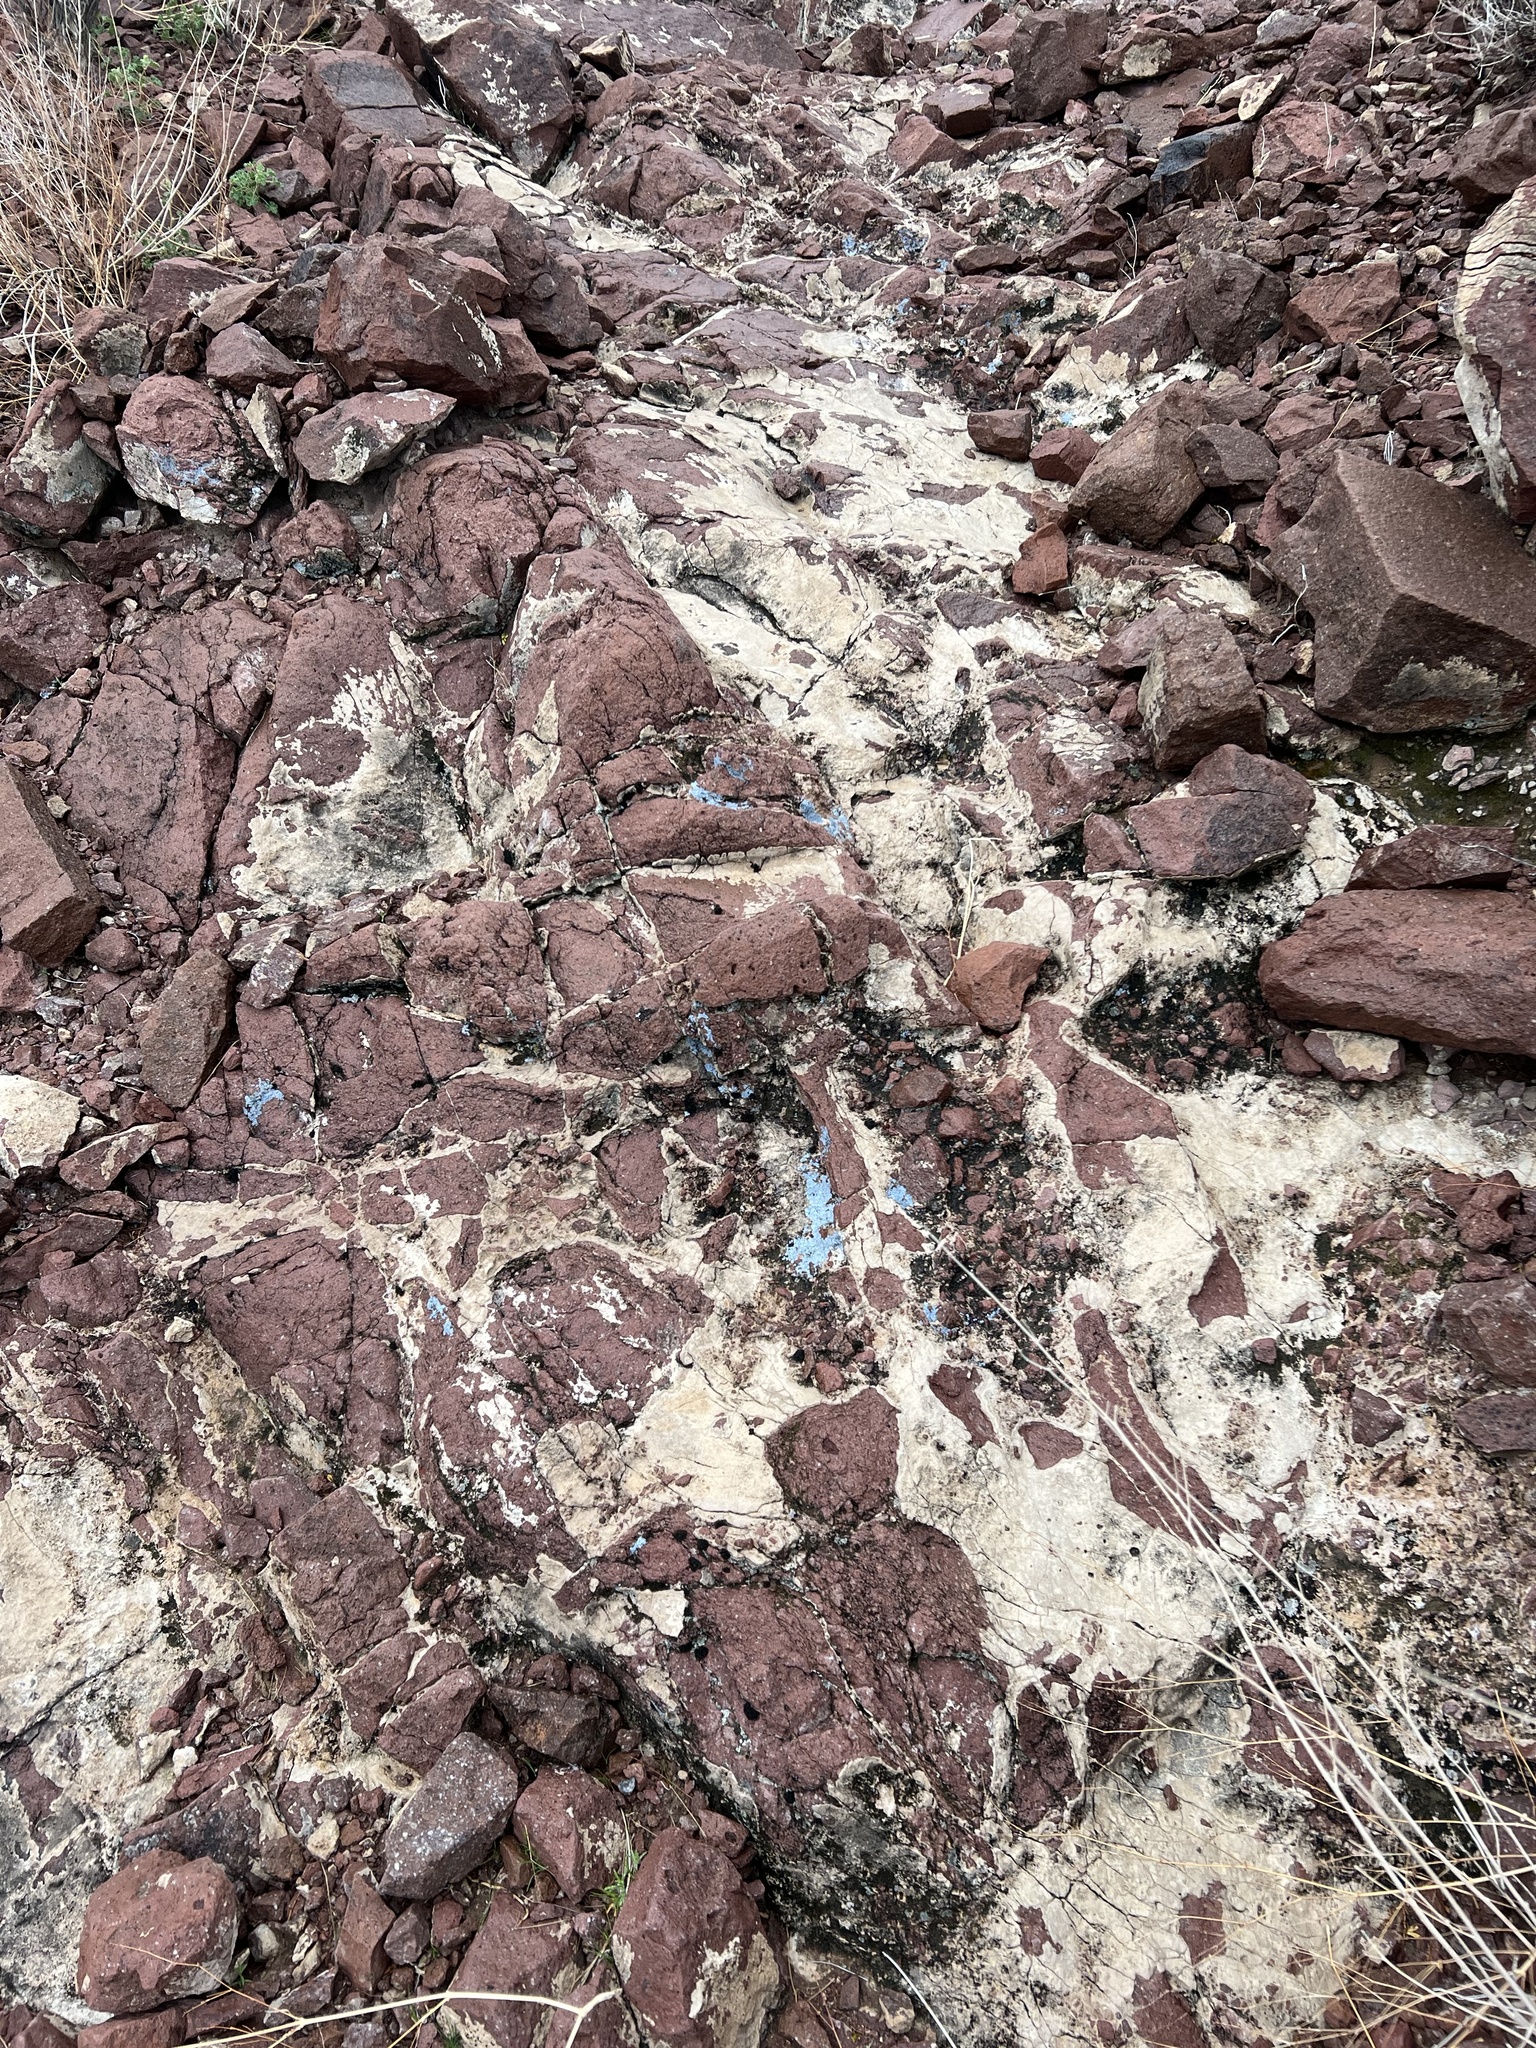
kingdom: Fungi
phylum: Ascomycota
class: Lecanoromycetes
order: Acarosporales
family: Acarosporaceae
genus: Acarospora
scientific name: Acarospora strigata
